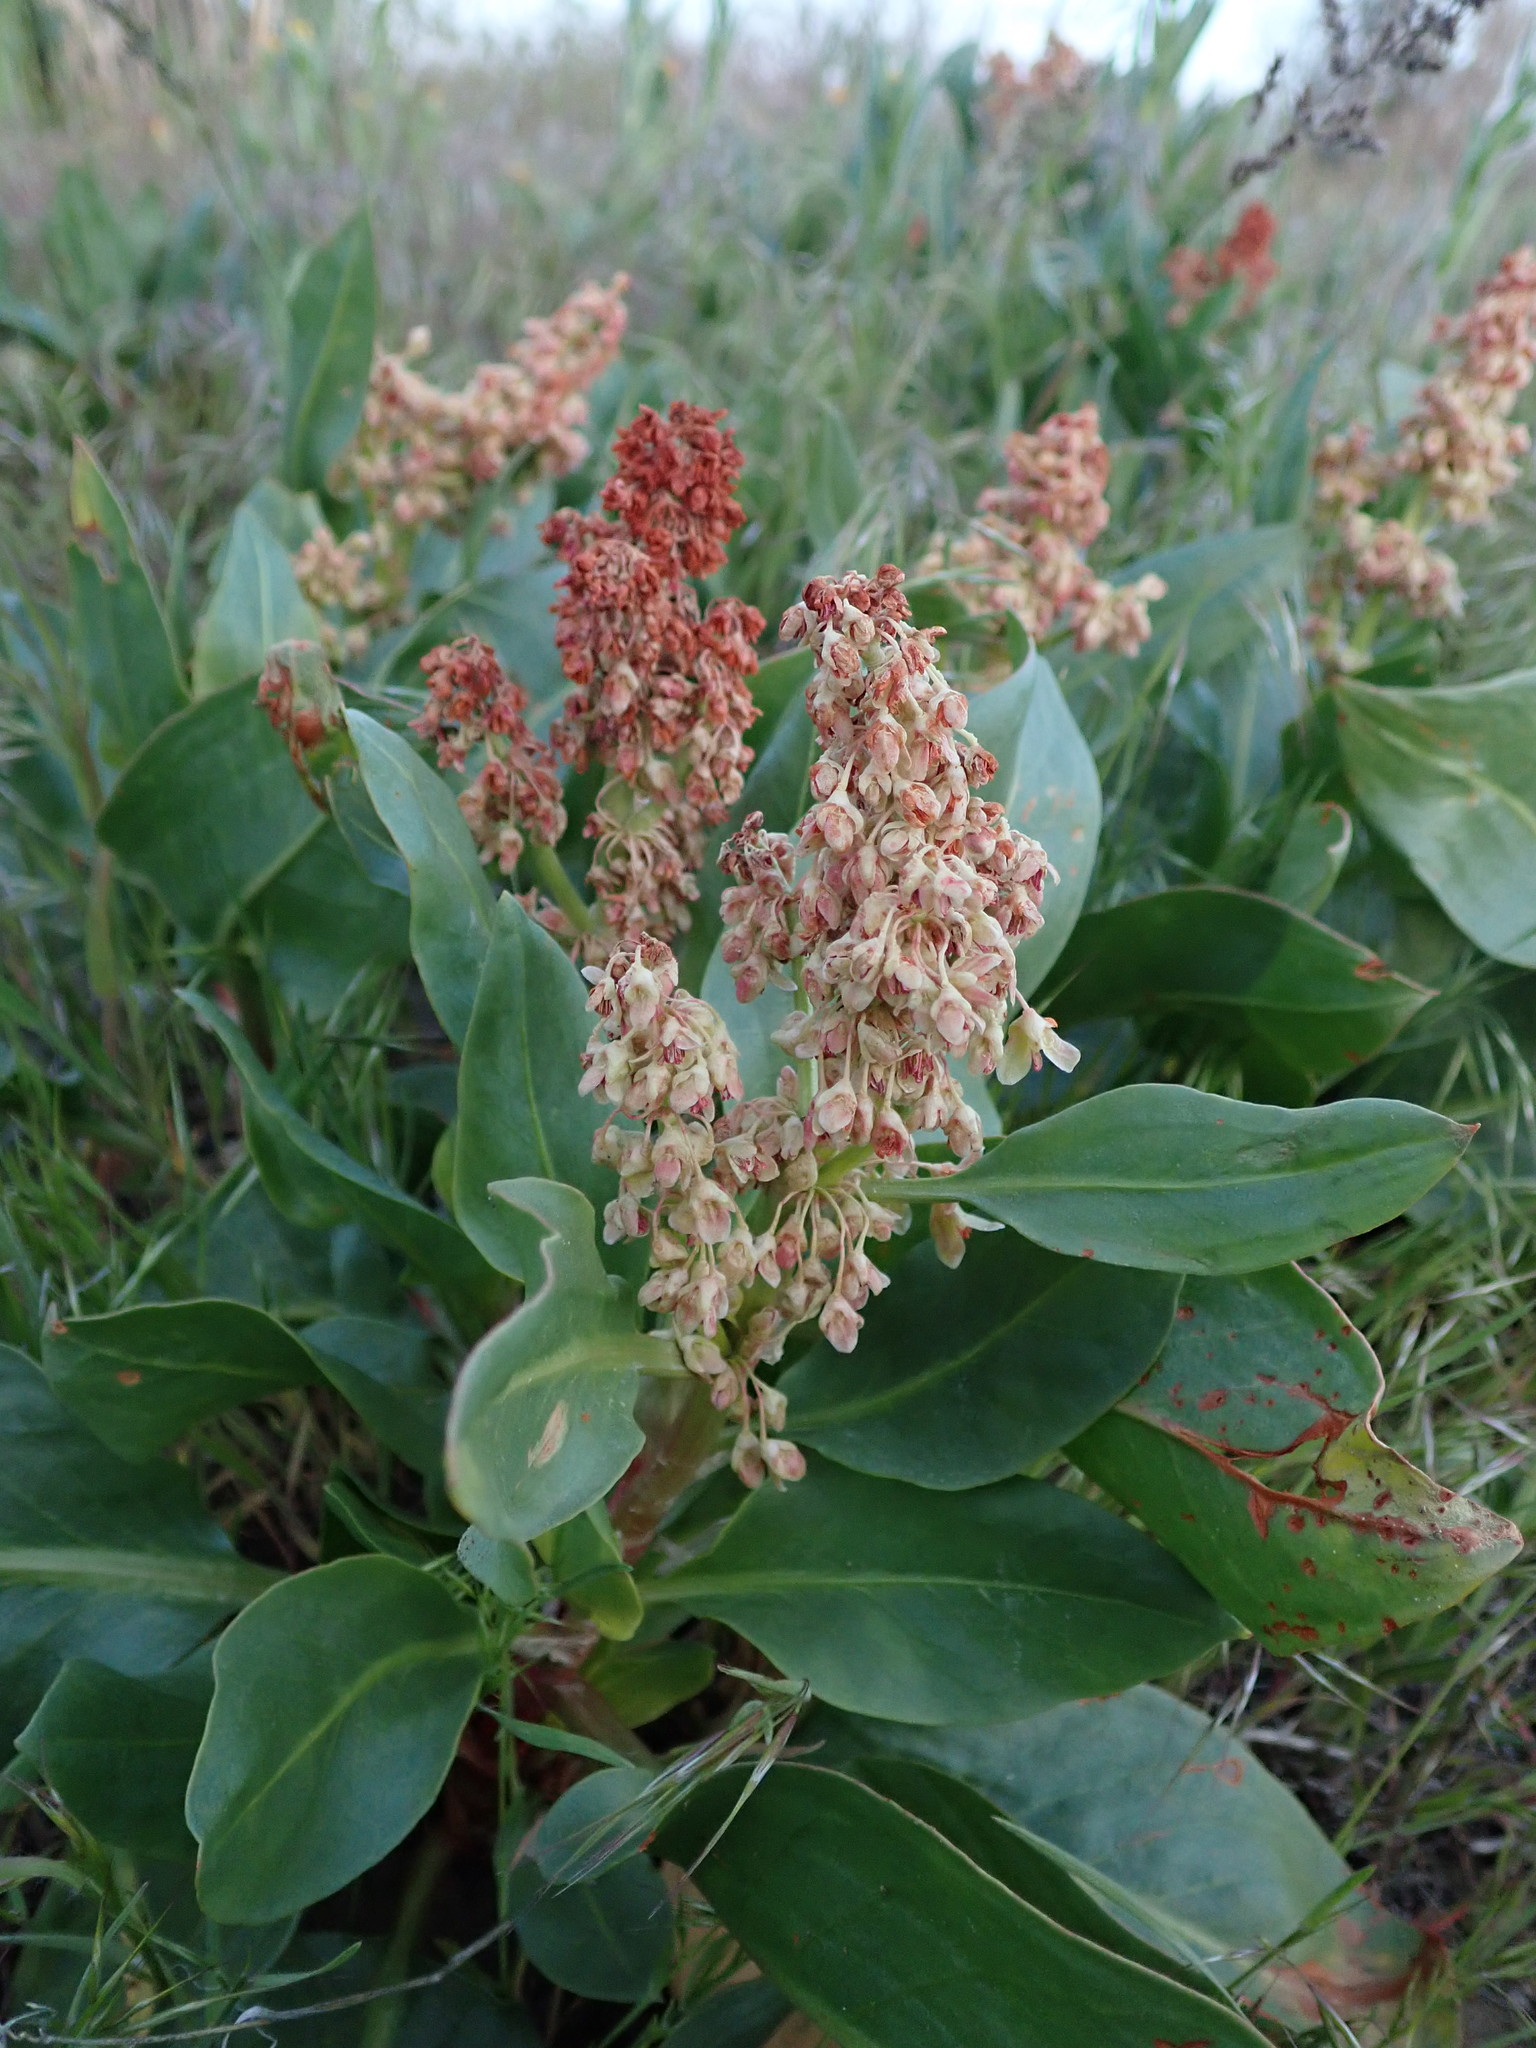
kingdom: Plantae
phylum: Tracheophyta
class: Magnoliopsida
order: Caryophyllales
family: Polygonaceae
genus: Rumex
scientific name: Rumex venosus
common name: Winged dock
